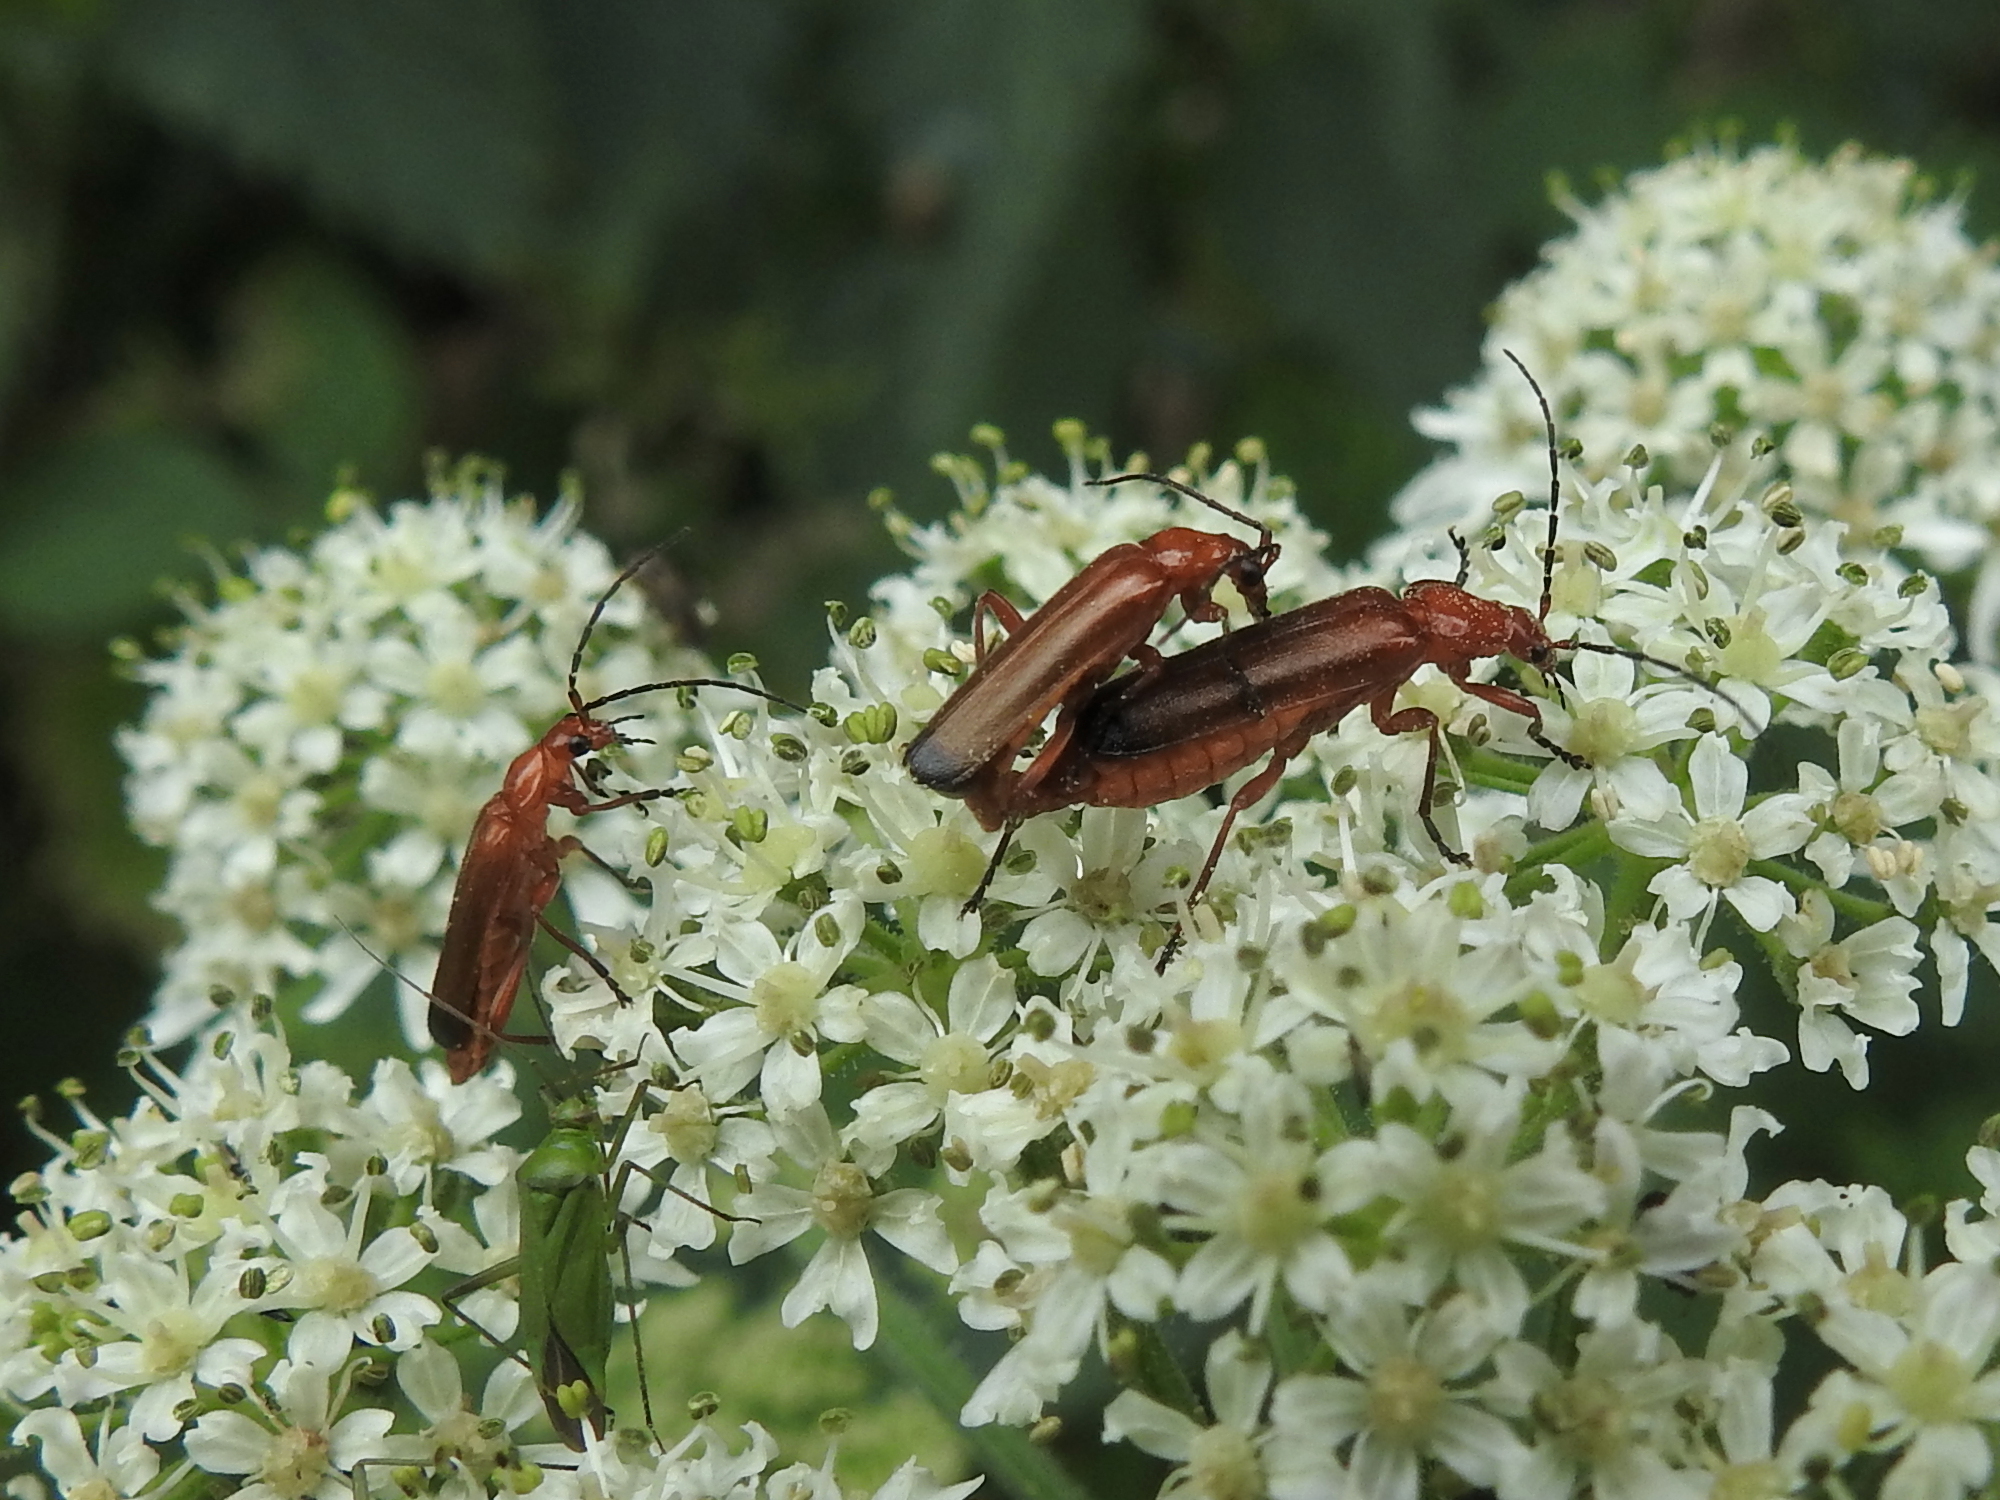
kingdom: Animalia
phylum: Arthropoda
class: Insecta
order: Coleoptera
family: Cantharidae
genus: Rhagonycha
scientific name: Rhagonycha fulva
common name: Common red soldier beetle
